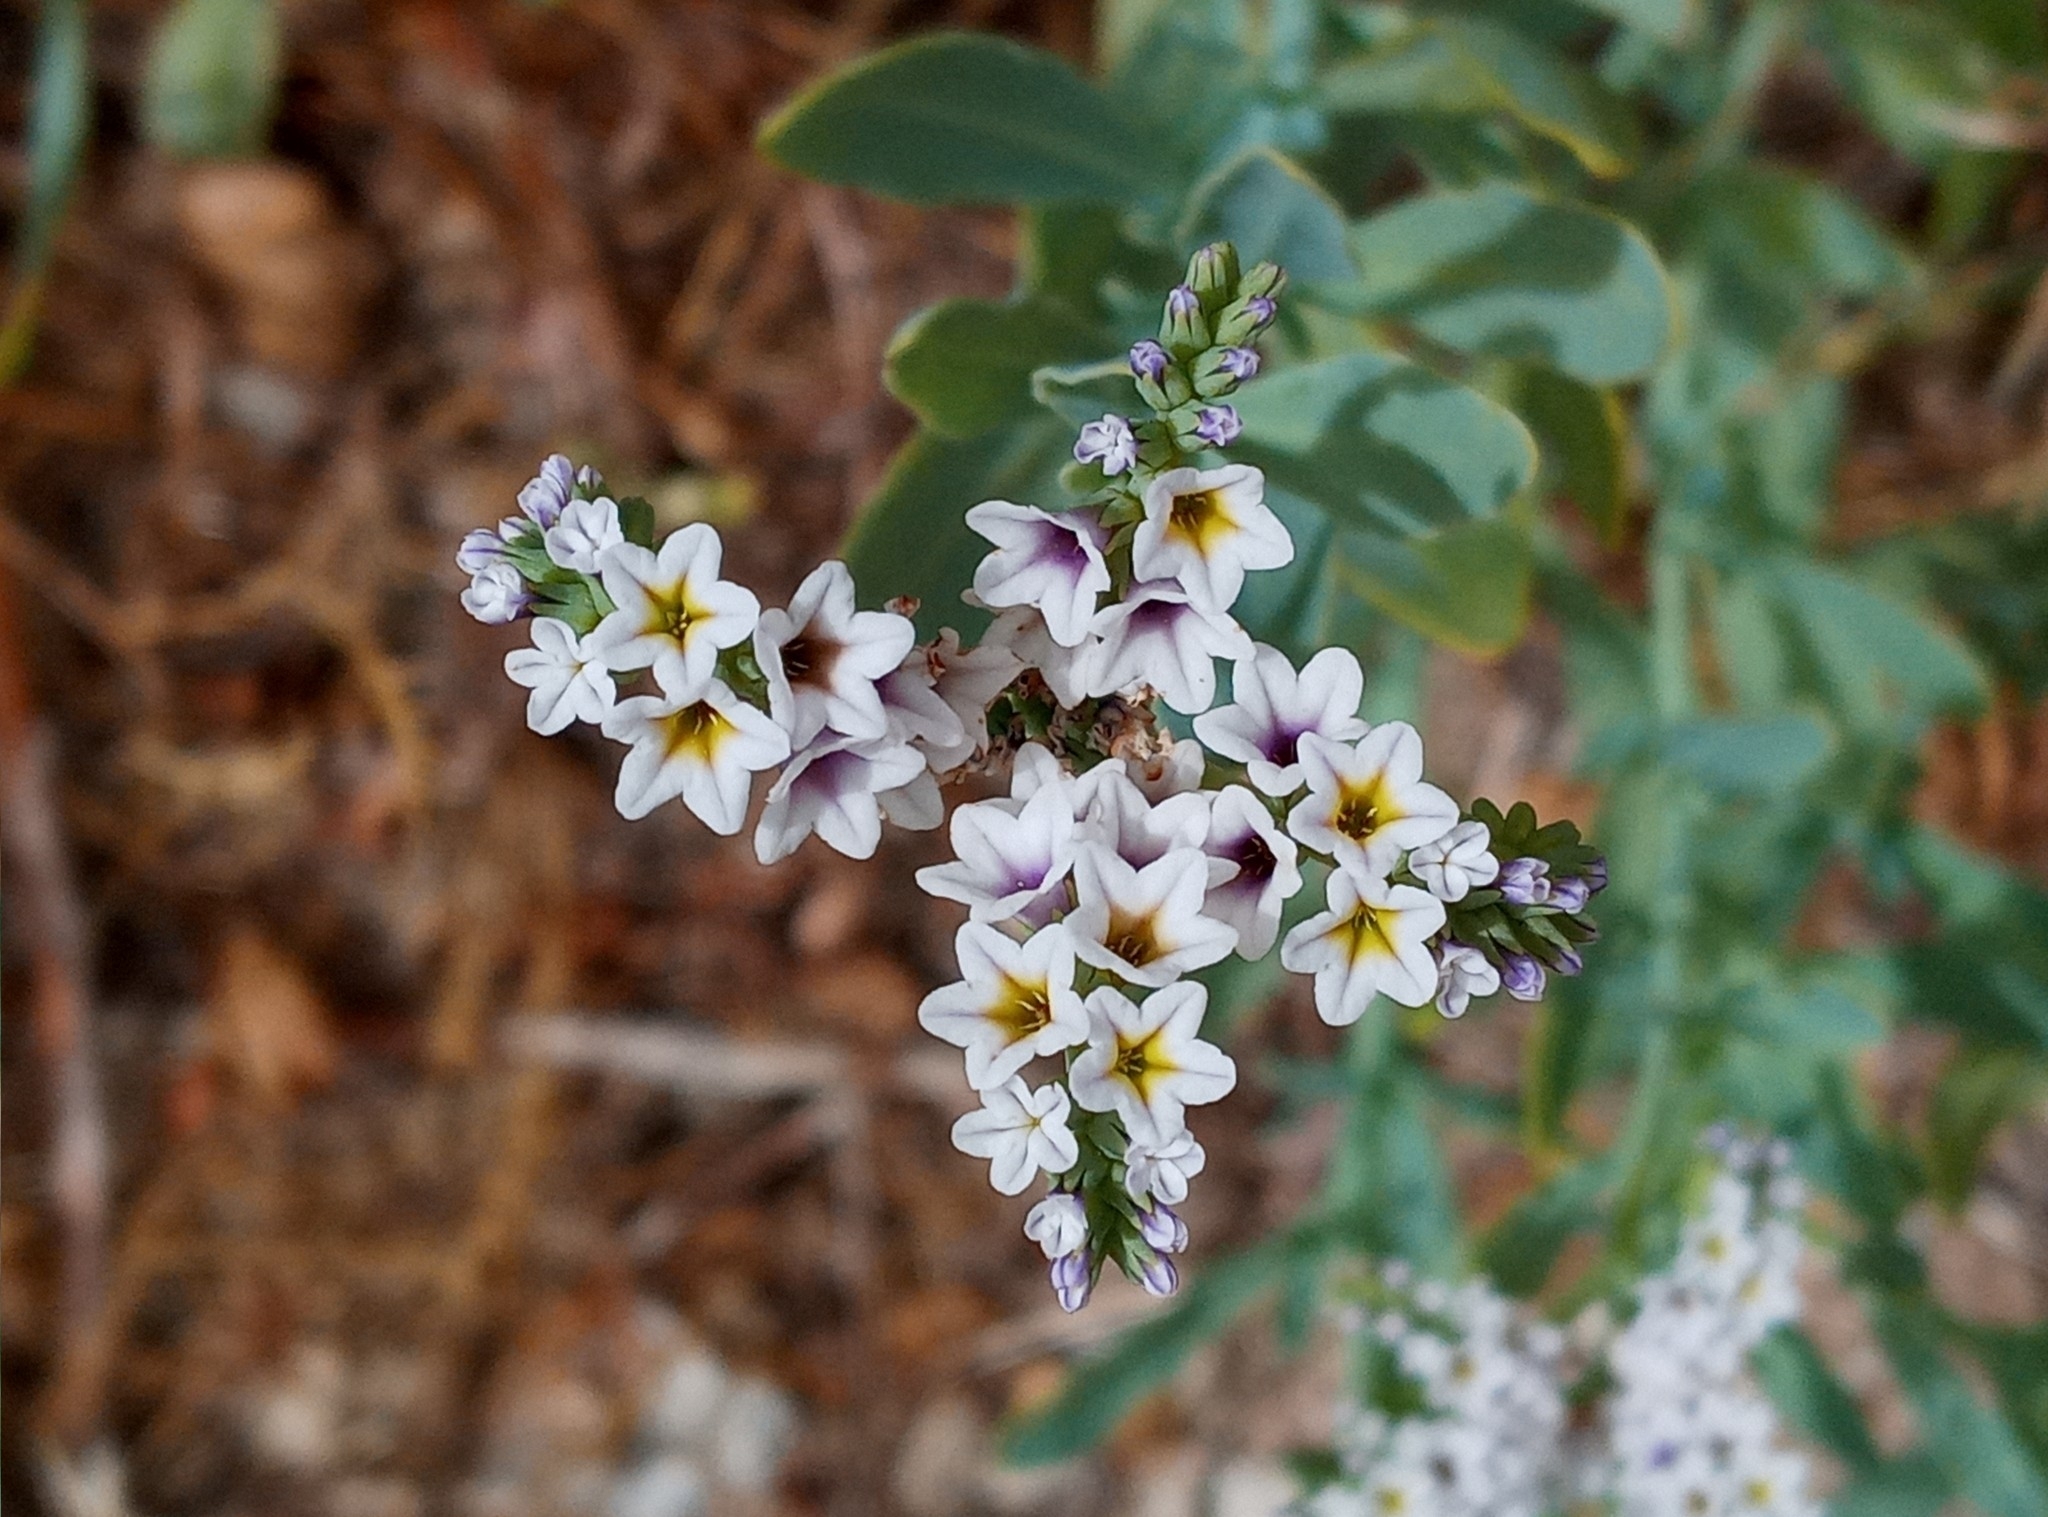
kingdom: Plantae
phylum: Tracheophyta
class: Magnoliopsida
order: Boraginales
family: Heliotropiaceae
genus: Heliotropium
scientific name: Heliotropium curassavicum
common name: Seaside heliotrope
